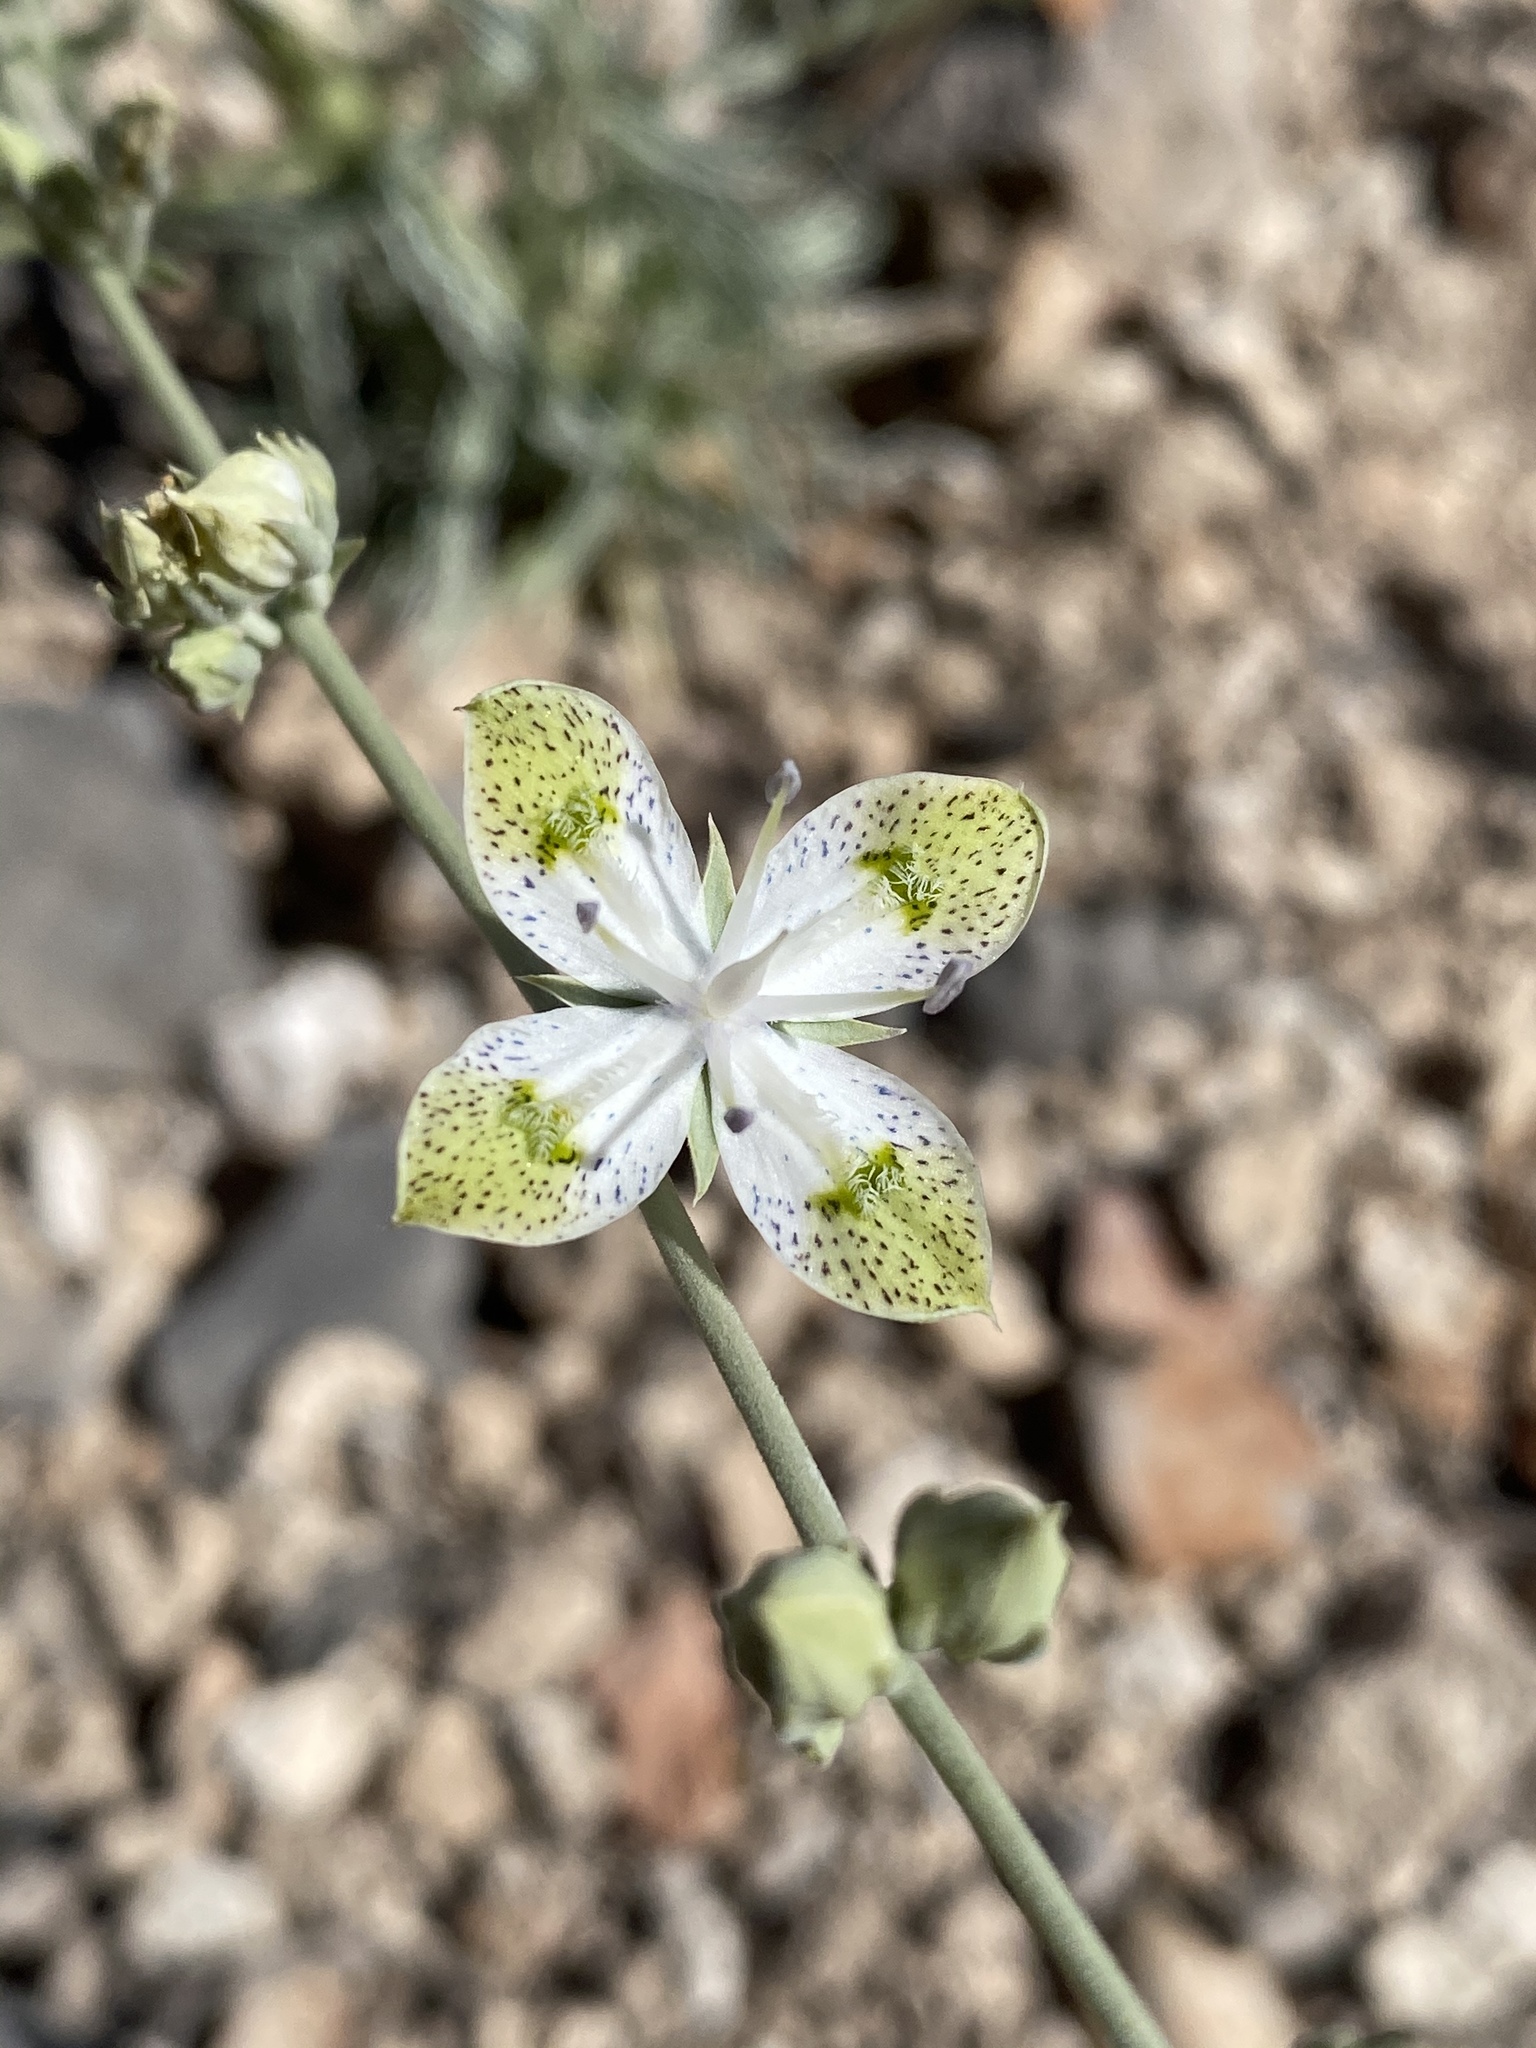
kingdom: Plantae
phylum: Tracheophyta
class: Magnoliopsida
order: Gentianales
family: Gentianaceae
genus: Frasera
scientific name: Frasera albomarginata
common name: Desert frasera
